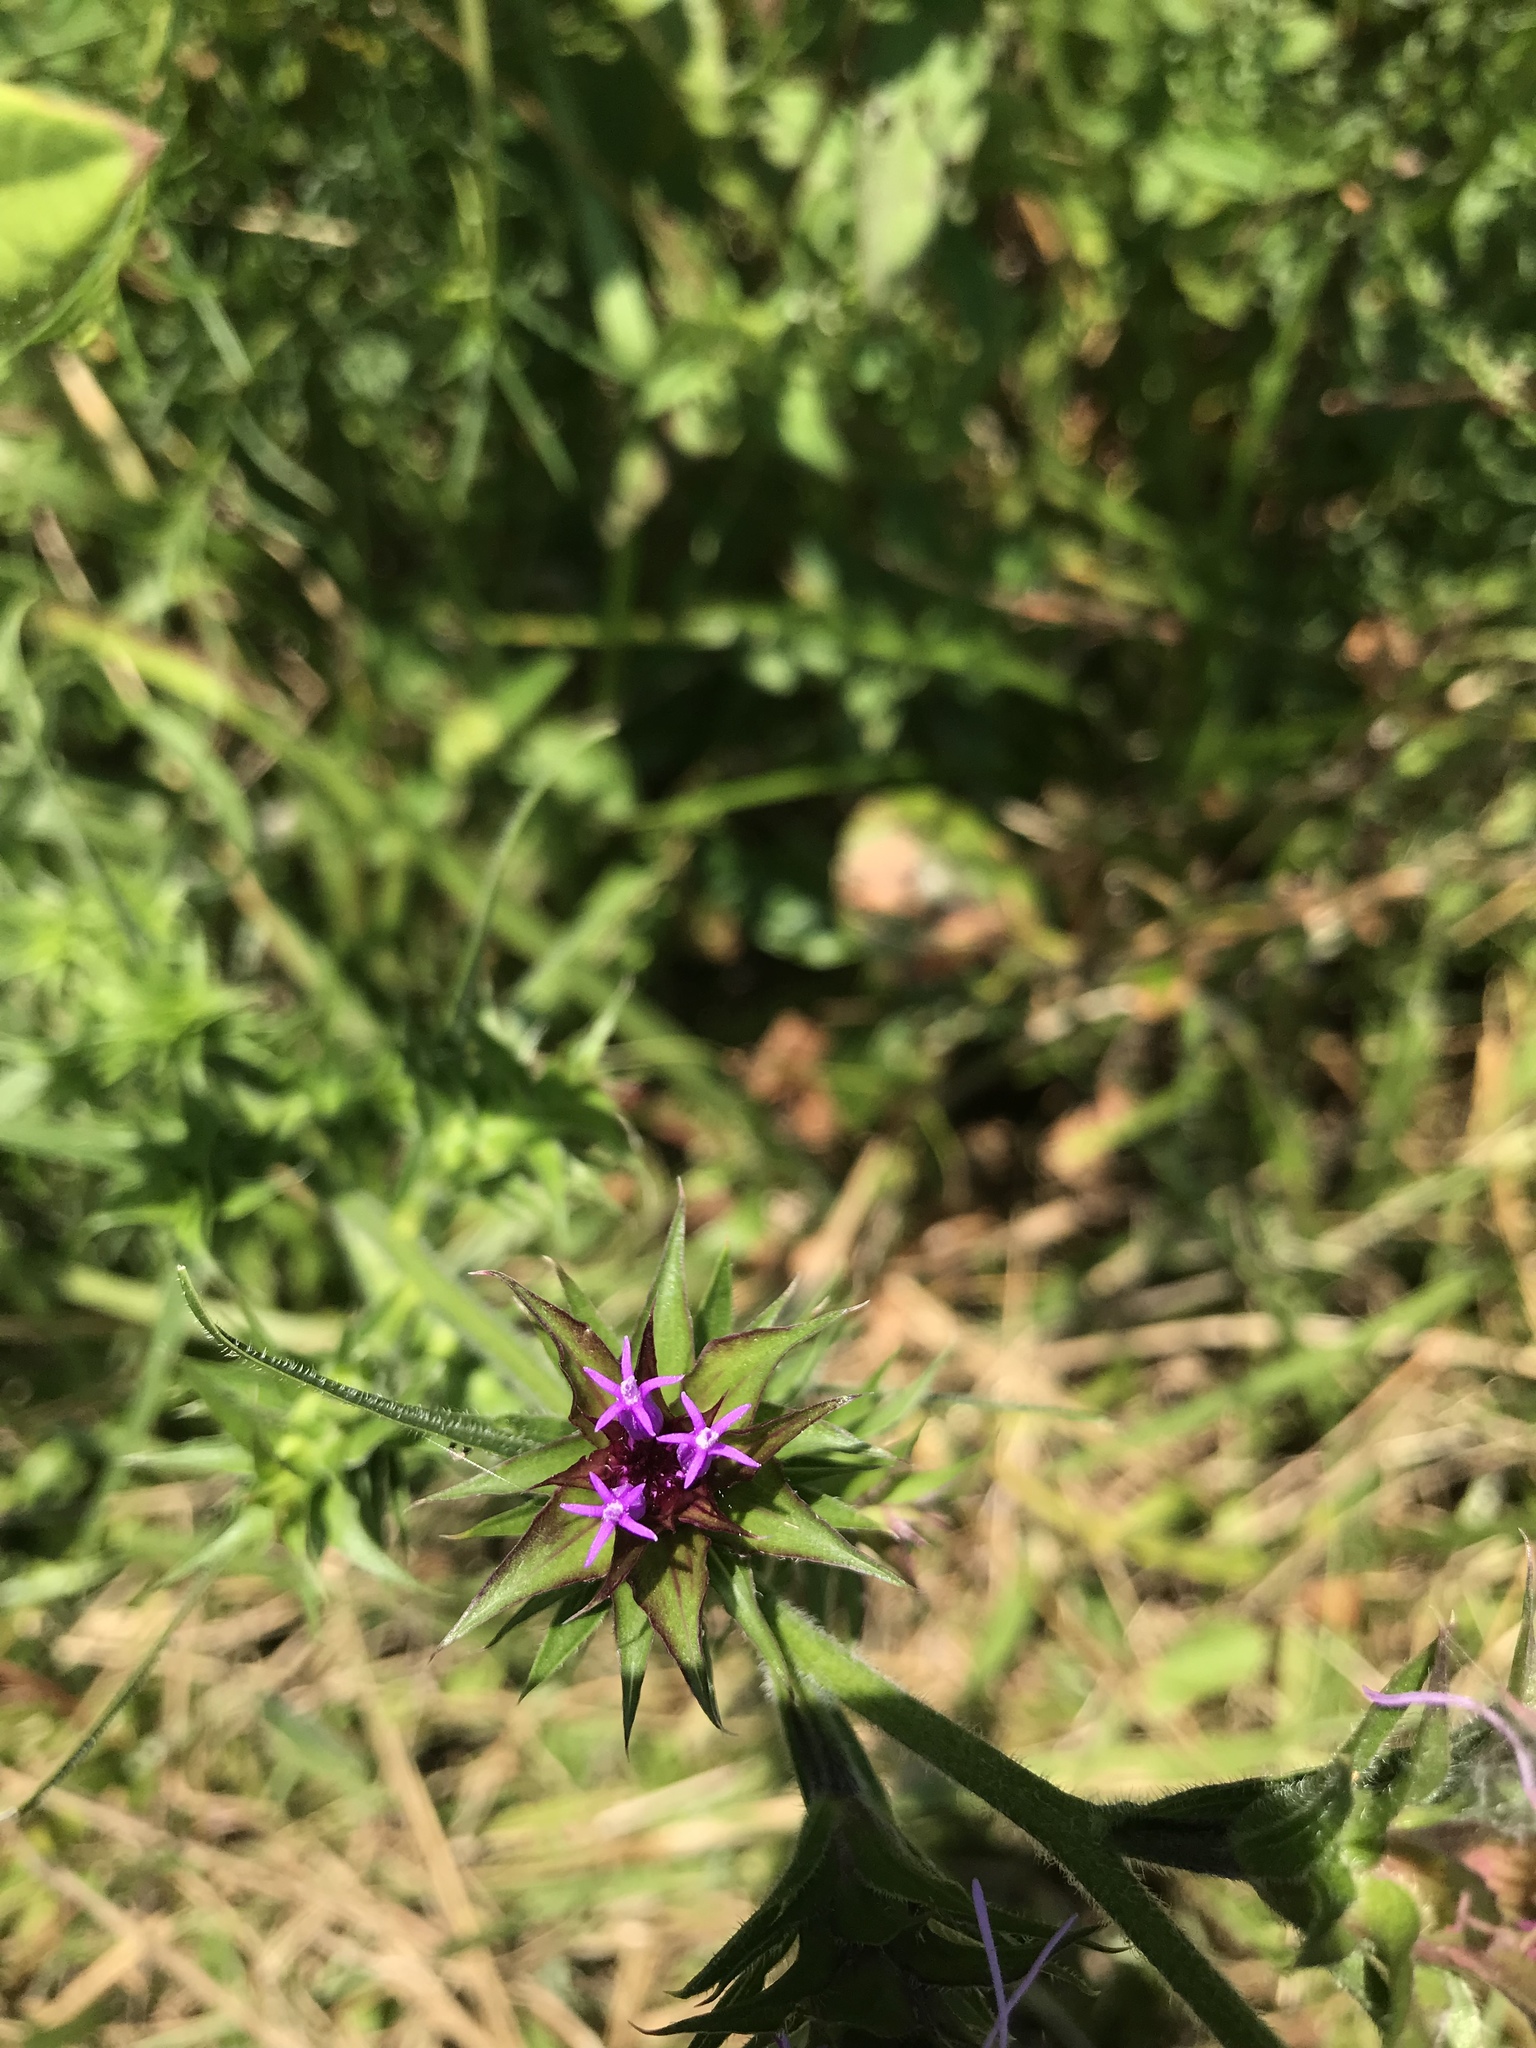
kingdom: Plantae
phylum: Tracheophyta
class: Magnoliopsida
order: Asterales
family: Asteraceae
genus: Liatris
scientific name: Liatris squarrosa
